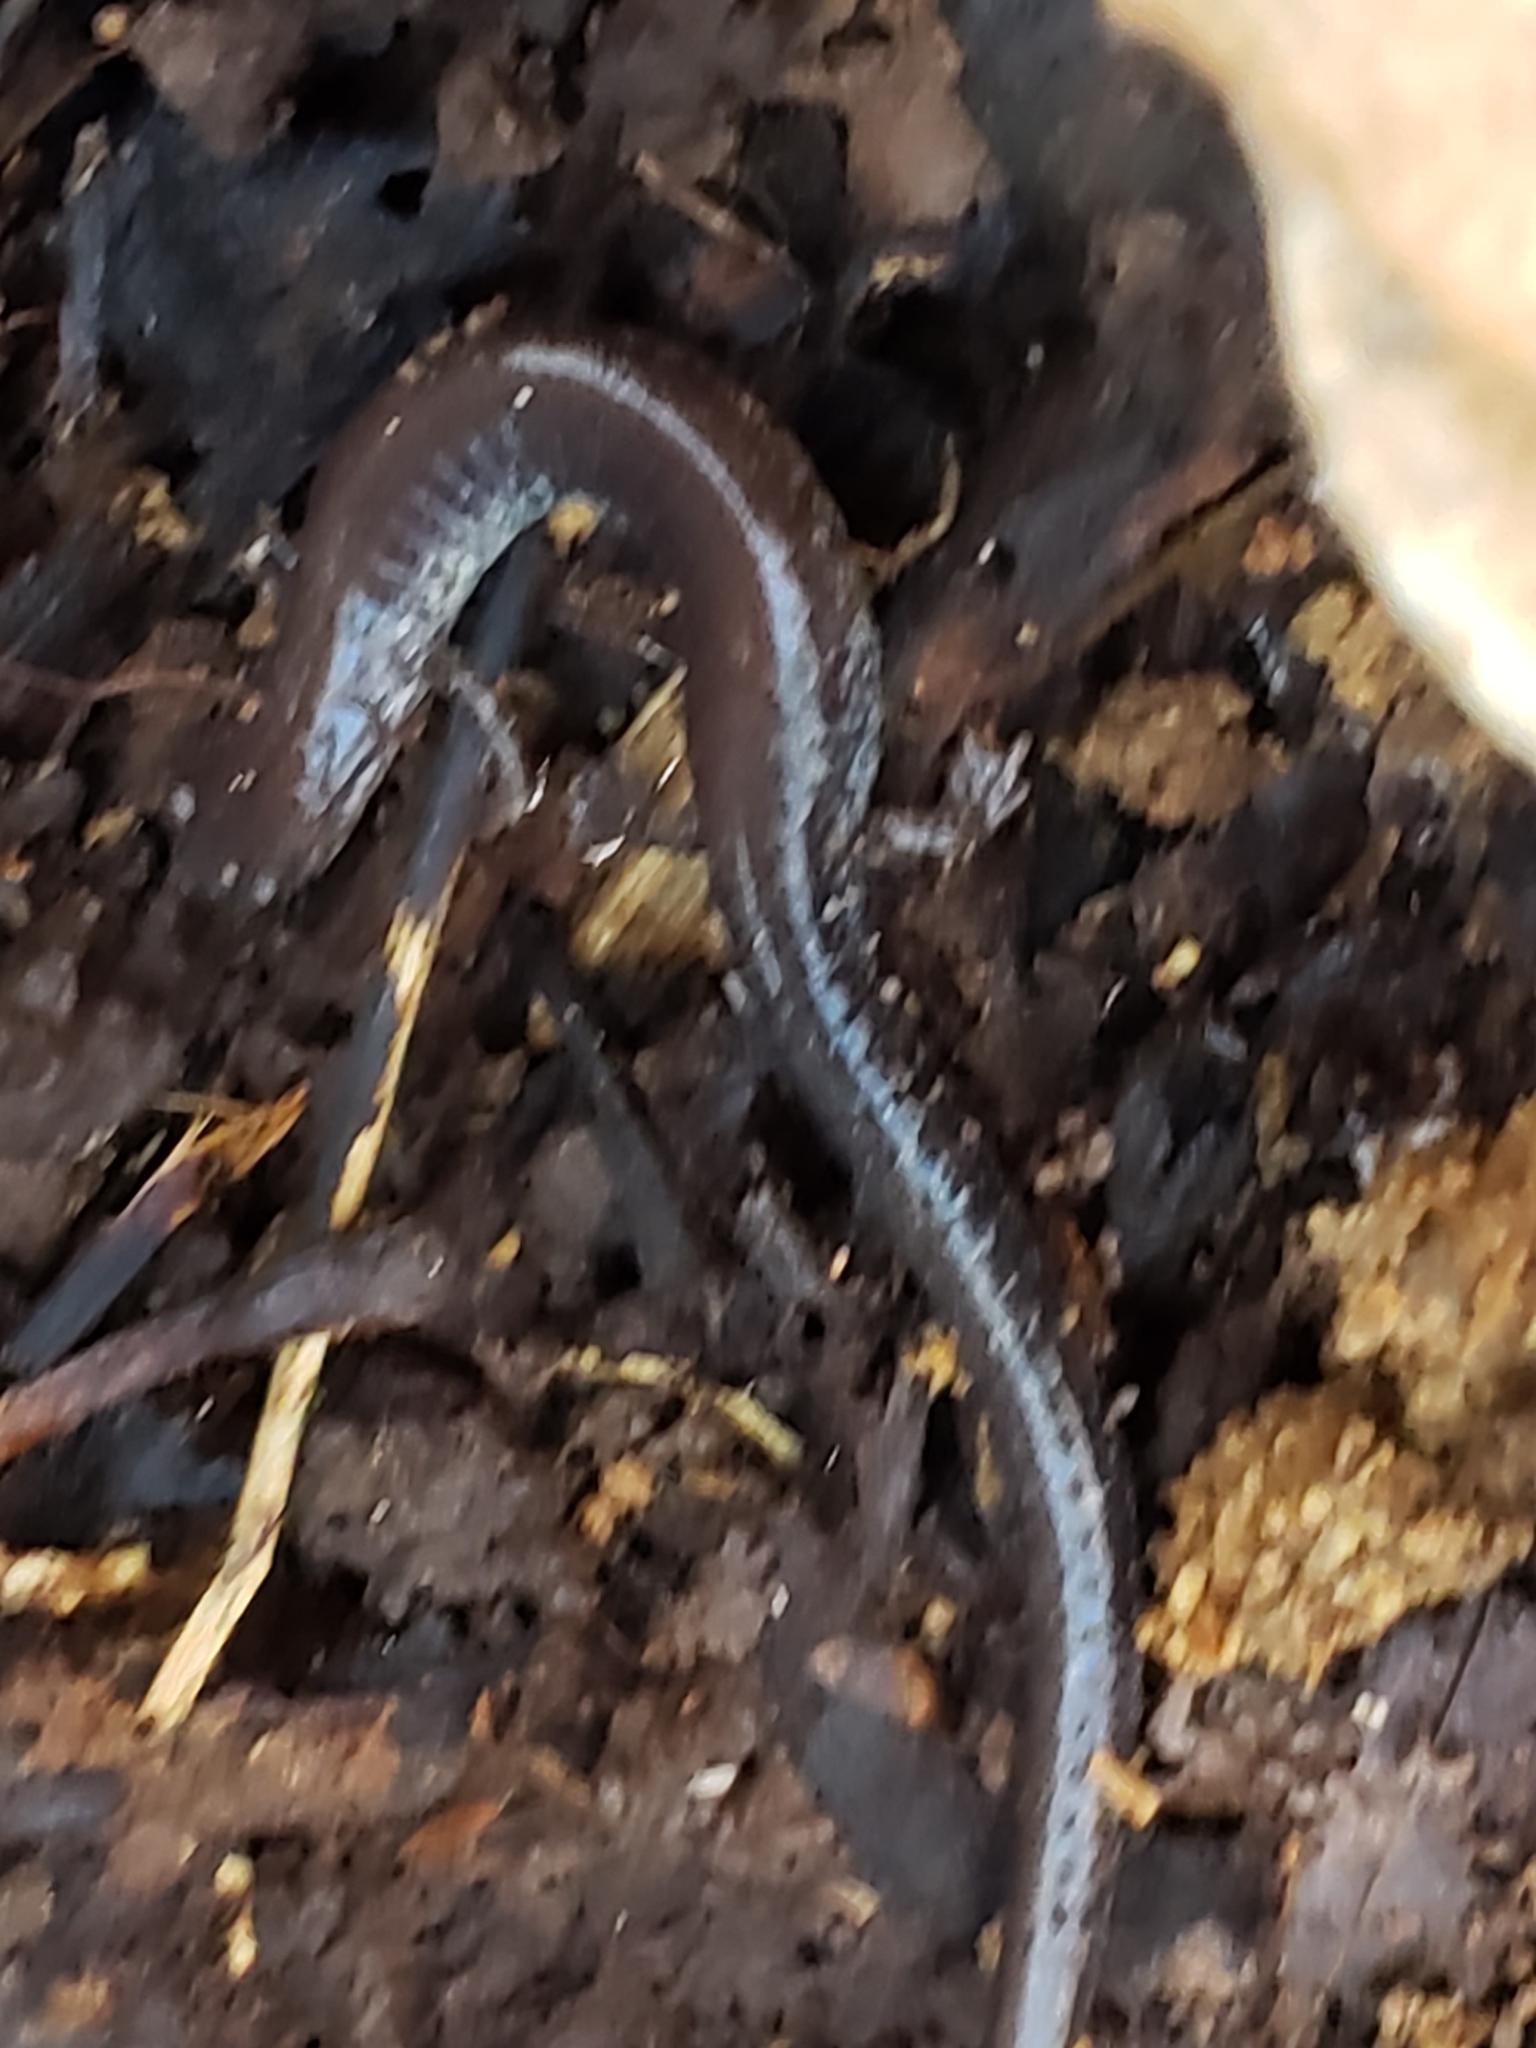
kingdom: Animalia
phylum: Chordata
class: Amphibia
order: Caudata
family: Plethodontidae
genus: Plethodon
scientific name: Plethodon cinereus
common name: Redback salamander
